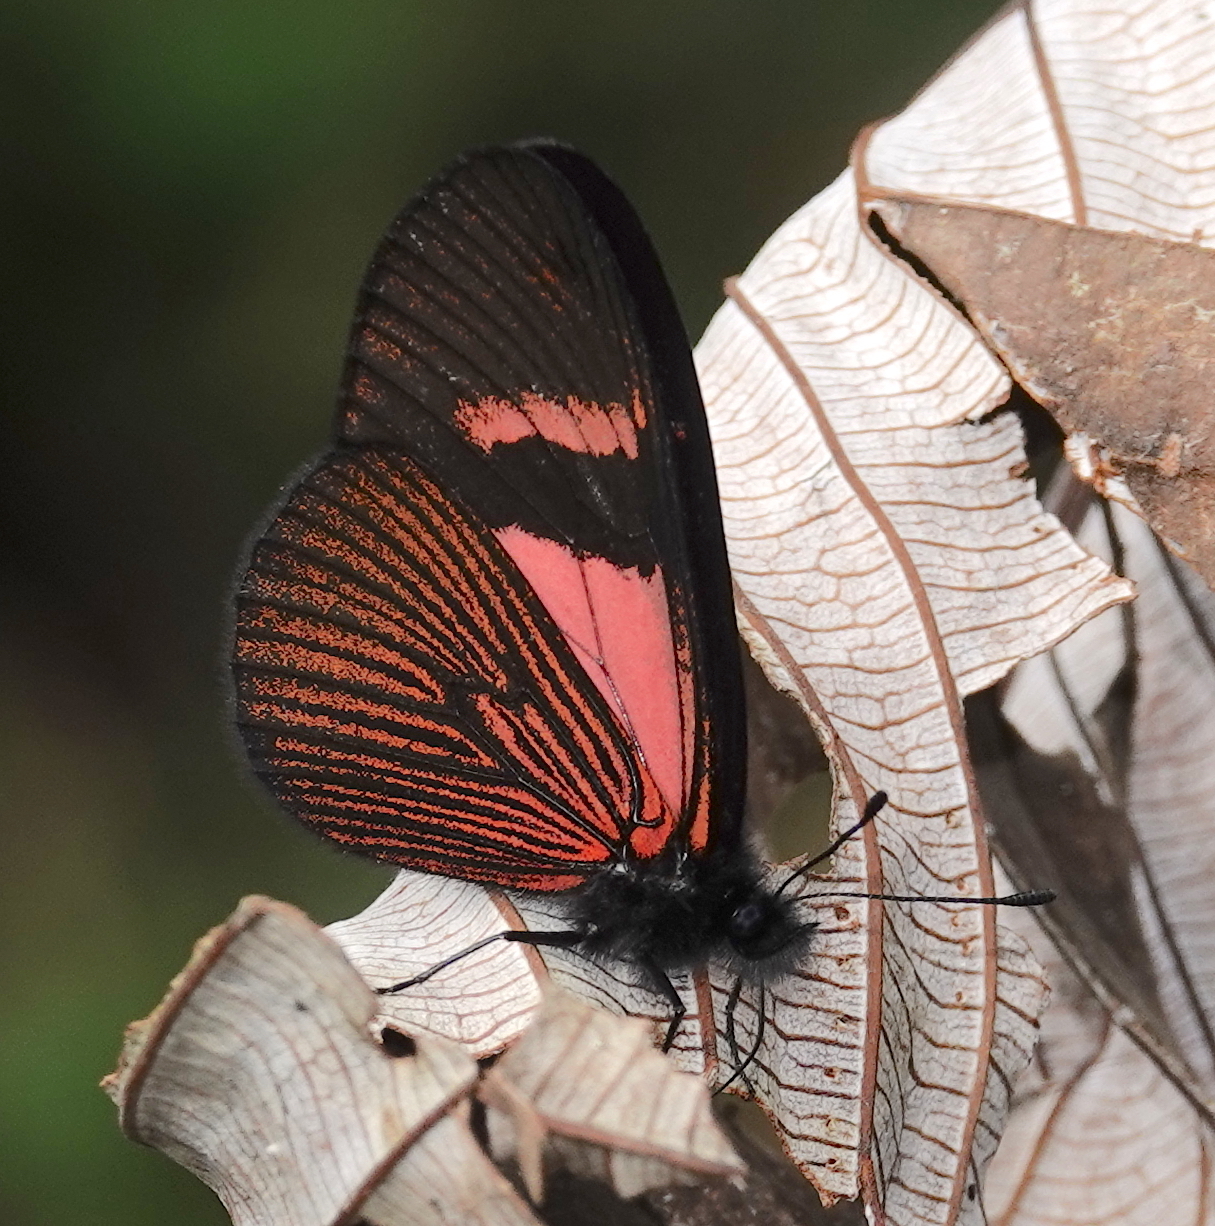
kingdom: Animalia
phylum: Arthropoda
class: Insecta
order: Lepidoptera
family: Nymphalidae
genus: Acraea
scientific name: Acraea Altinote dicaeus
